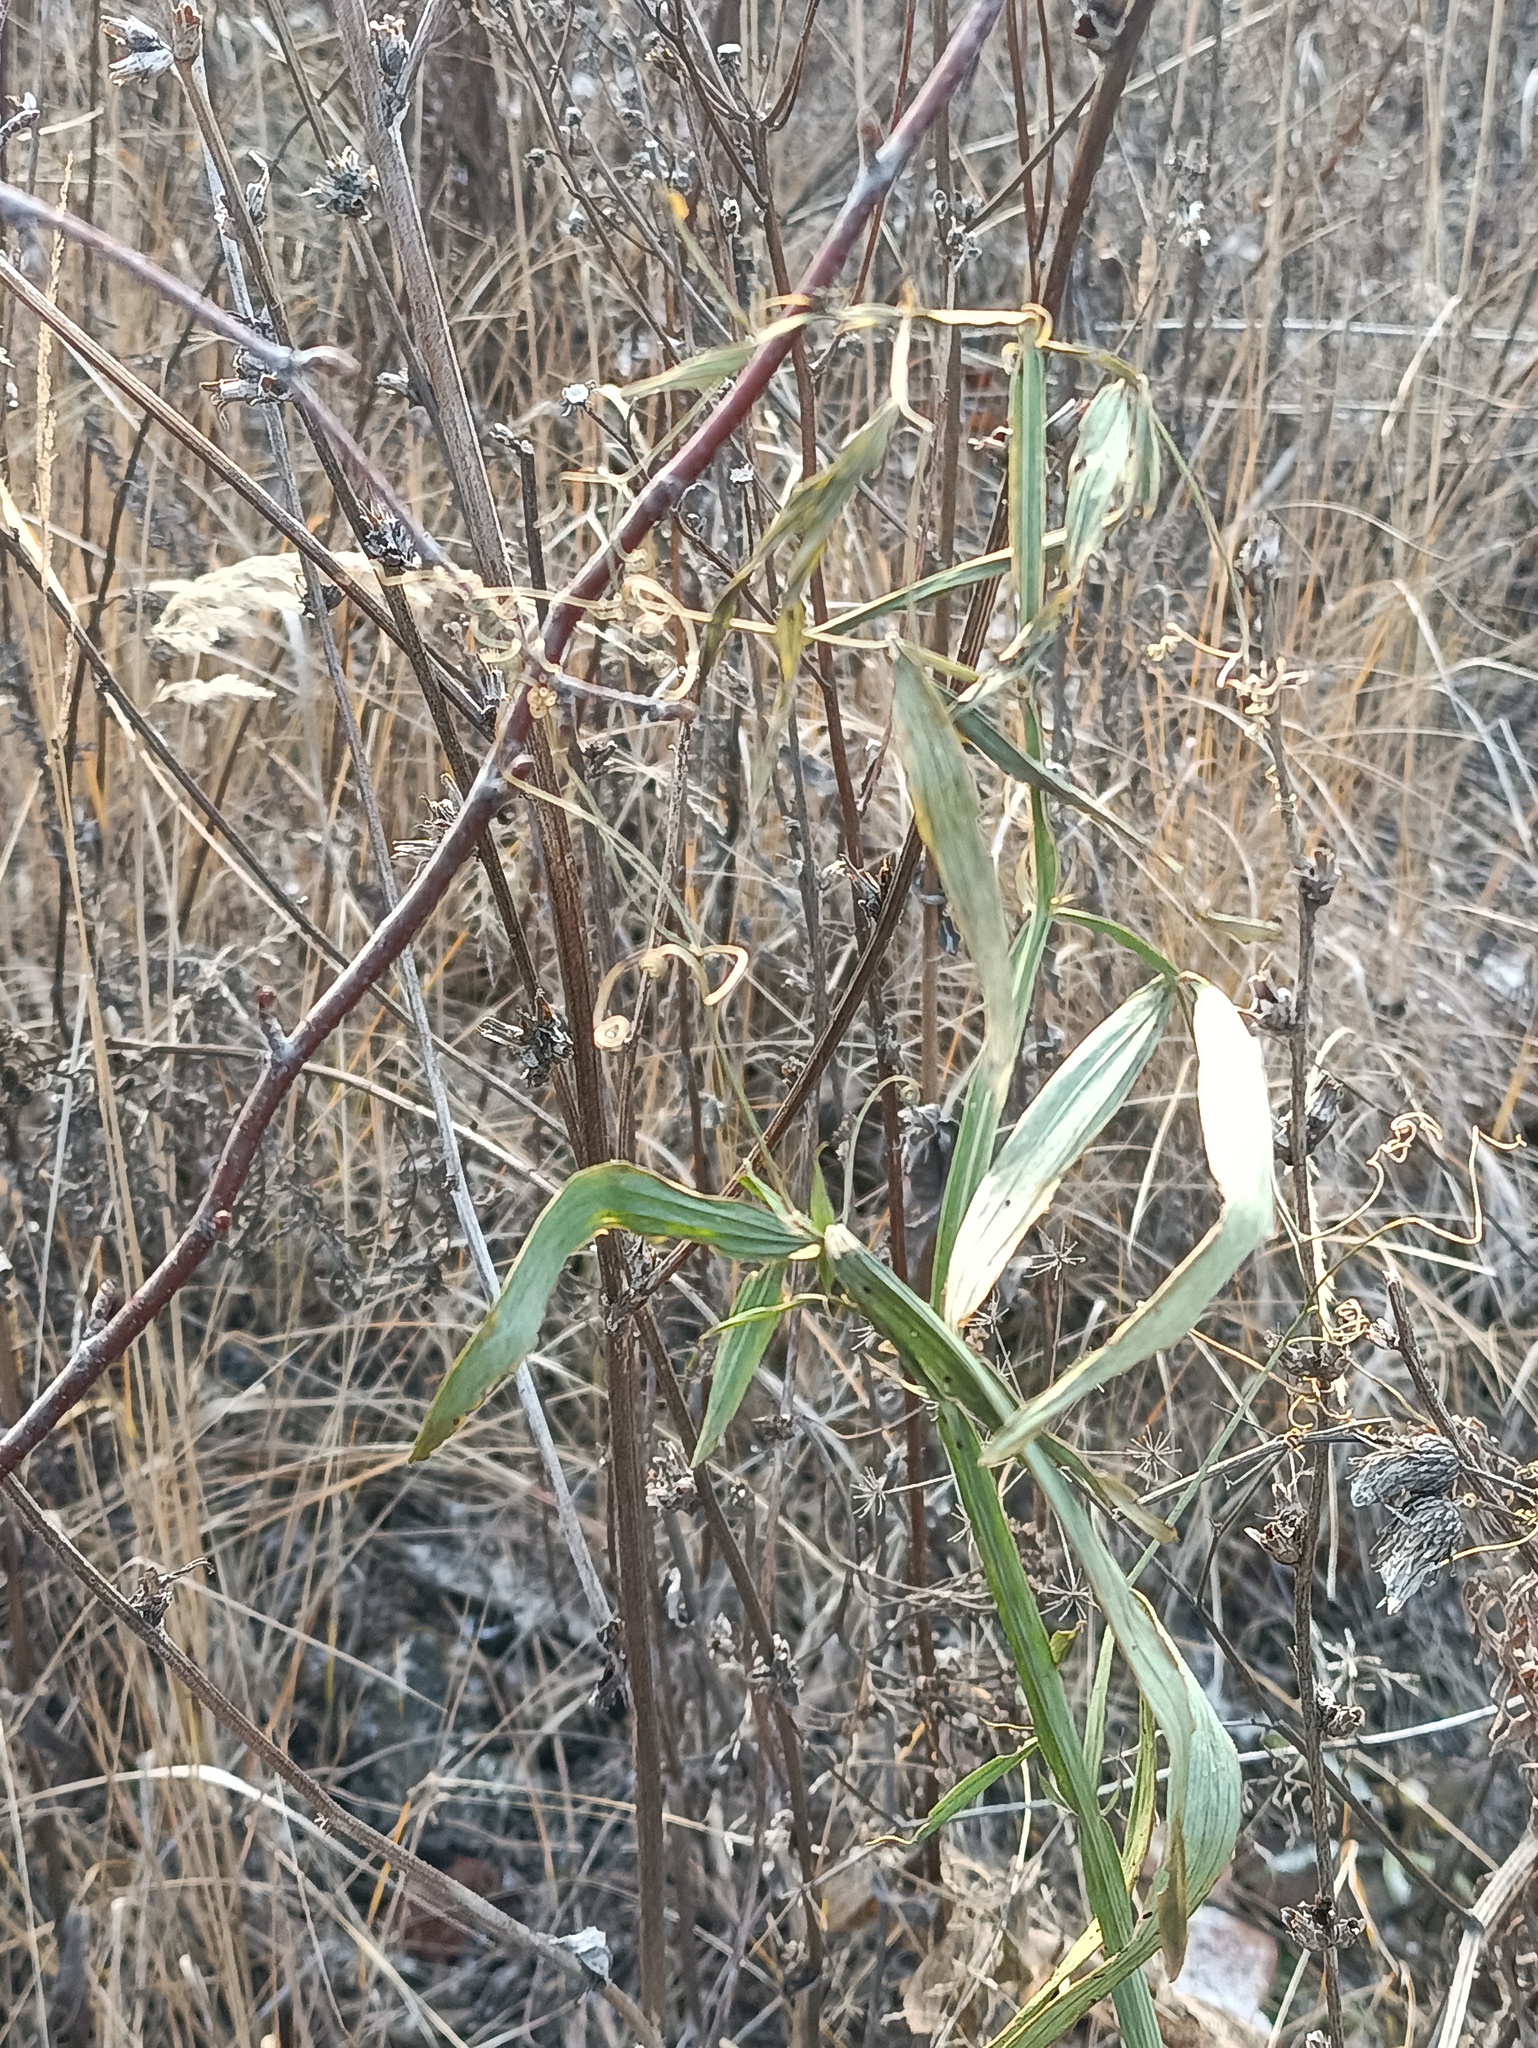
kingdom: Plantae
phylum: Tracheophyta
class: Magnoliopsida
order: Fabales
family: Fabaceae
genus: Lathyrus
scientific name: Lathyrus sylvestris
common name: Flat pea
